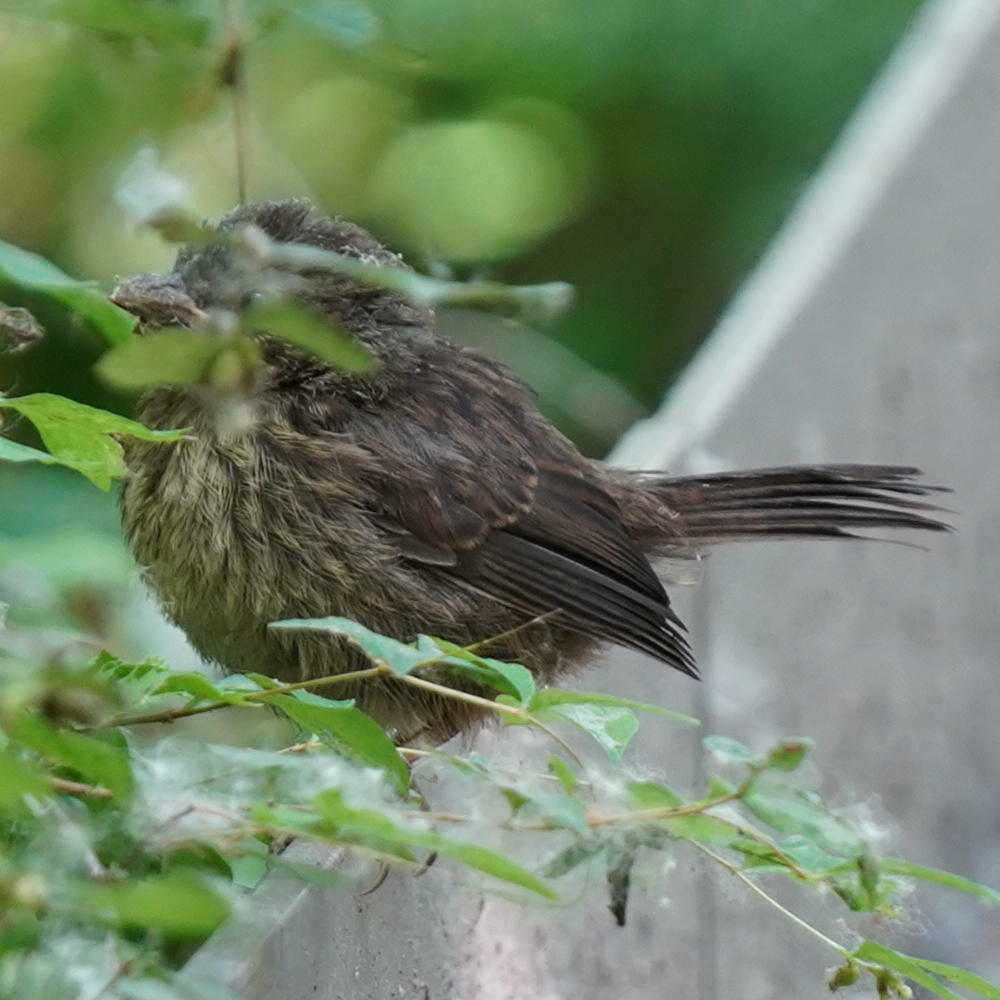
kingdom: Animalia
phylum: Chordata
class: Aves
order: Passeriformes
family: Passerellidae
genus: Melospiza
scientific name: Melospiza melodia
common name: Song sparrow
